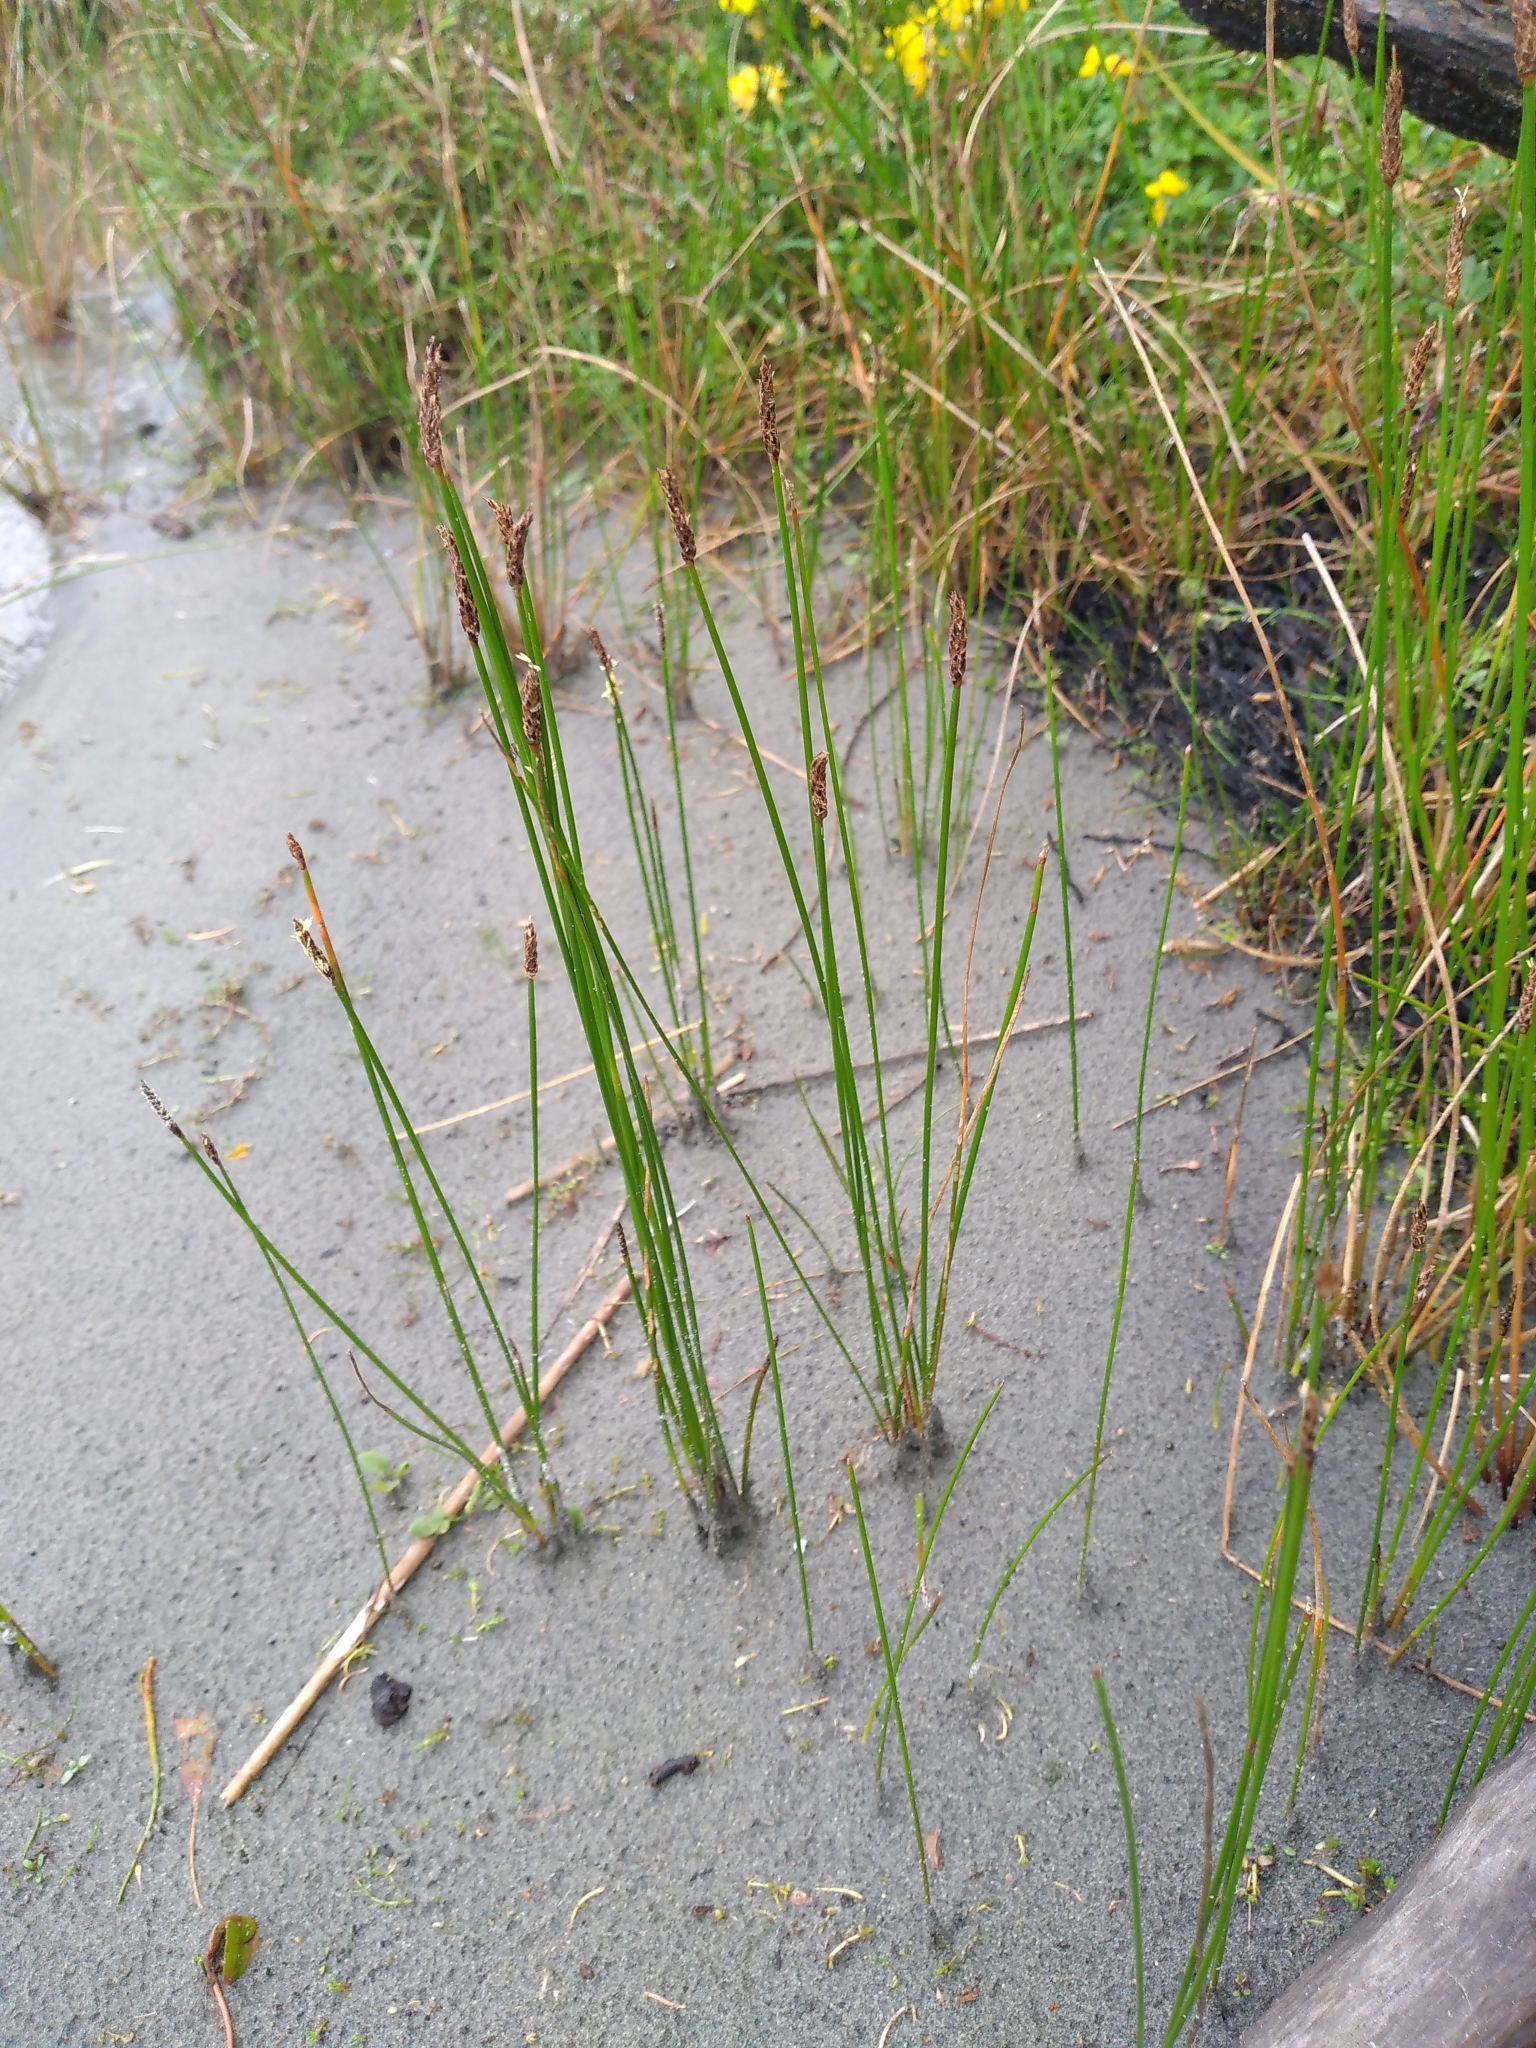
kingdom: Plantae
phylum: Tracheophyta
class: Liliopsida
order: Poales
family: Cyperaceae
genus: Eleocharis
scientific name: Eleocharis acuta
